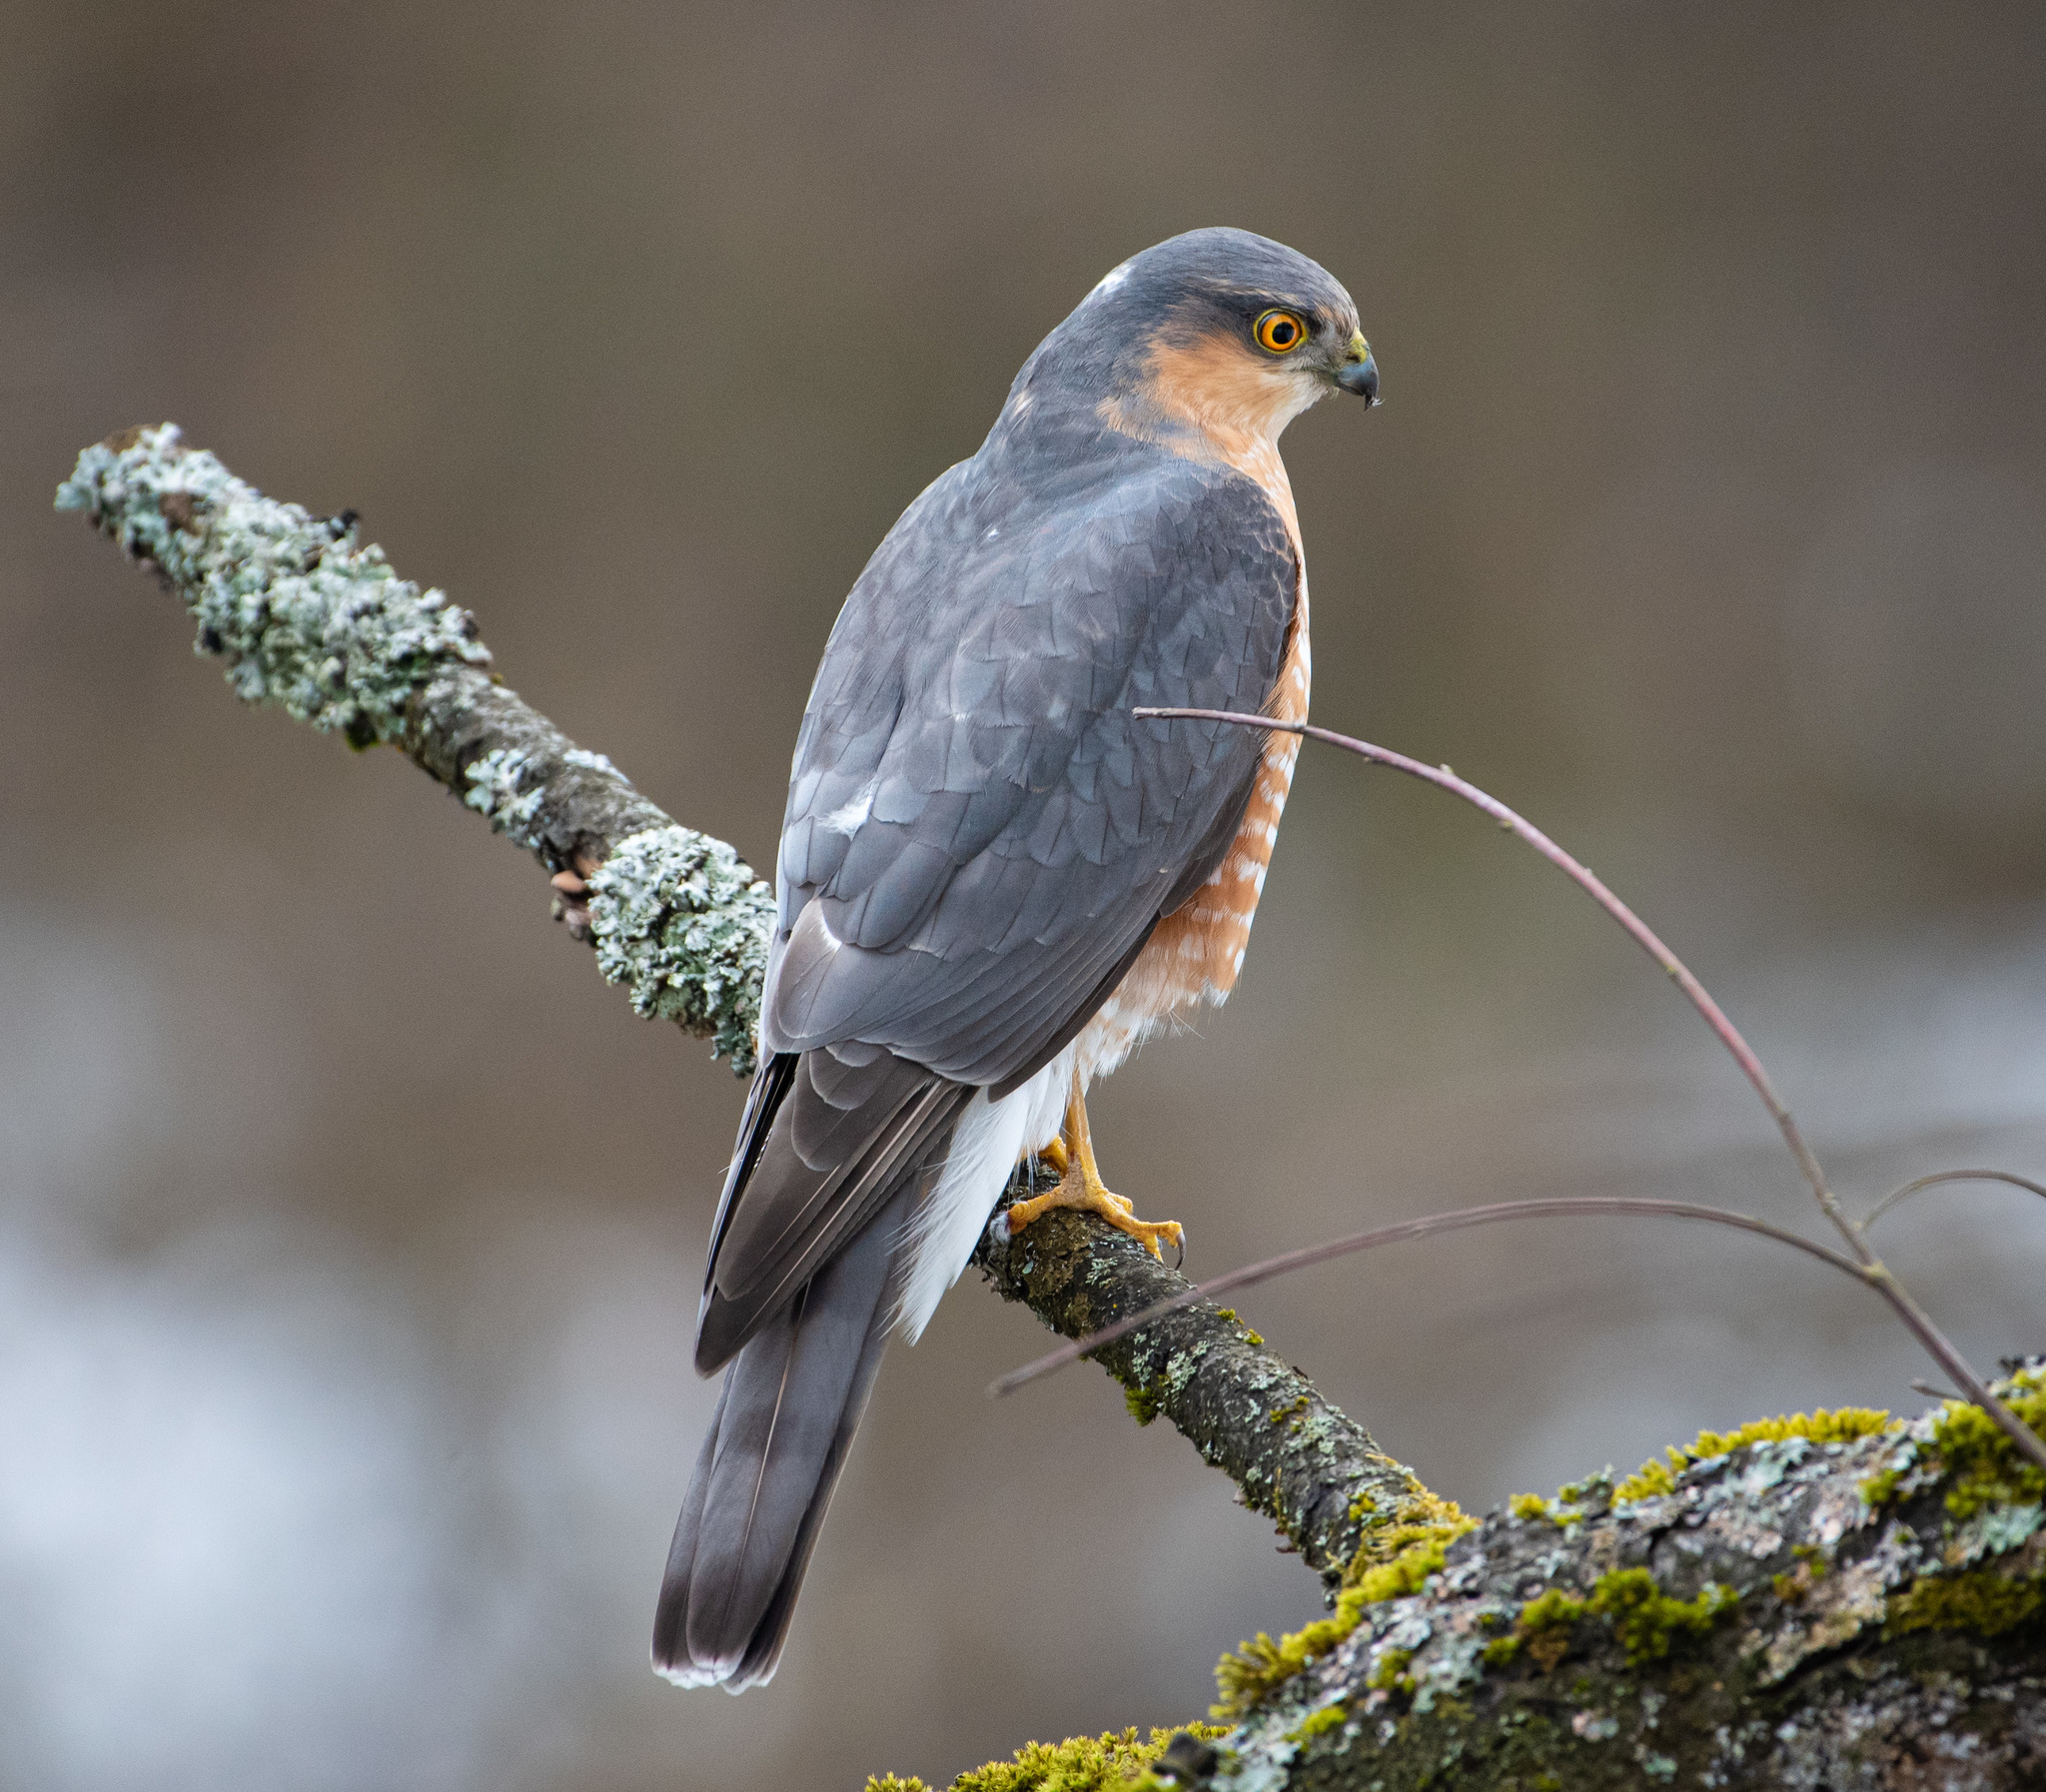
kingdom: Animalia
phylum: Chordata
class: Aves
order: Accipitriformes
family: Accipitridae
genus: Accipiter
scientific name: Accipiter nisus
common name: Eurasian sparrowhawk
